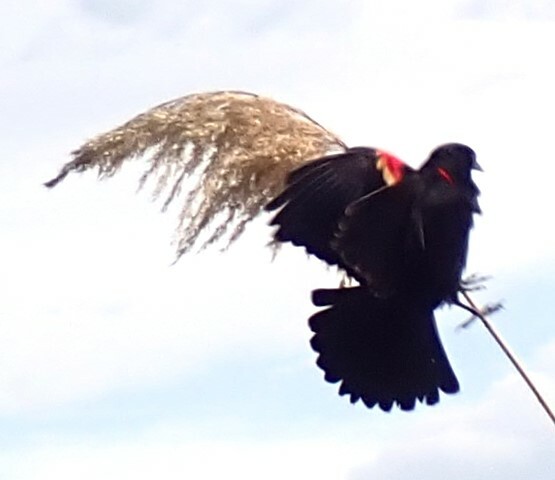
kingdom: Animalia
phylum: Chordata
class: Aves
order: Passeriformes
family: Icteridae
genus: Agelaius
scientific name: Agelaius phoeniceus
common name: Red-winged blackbird
